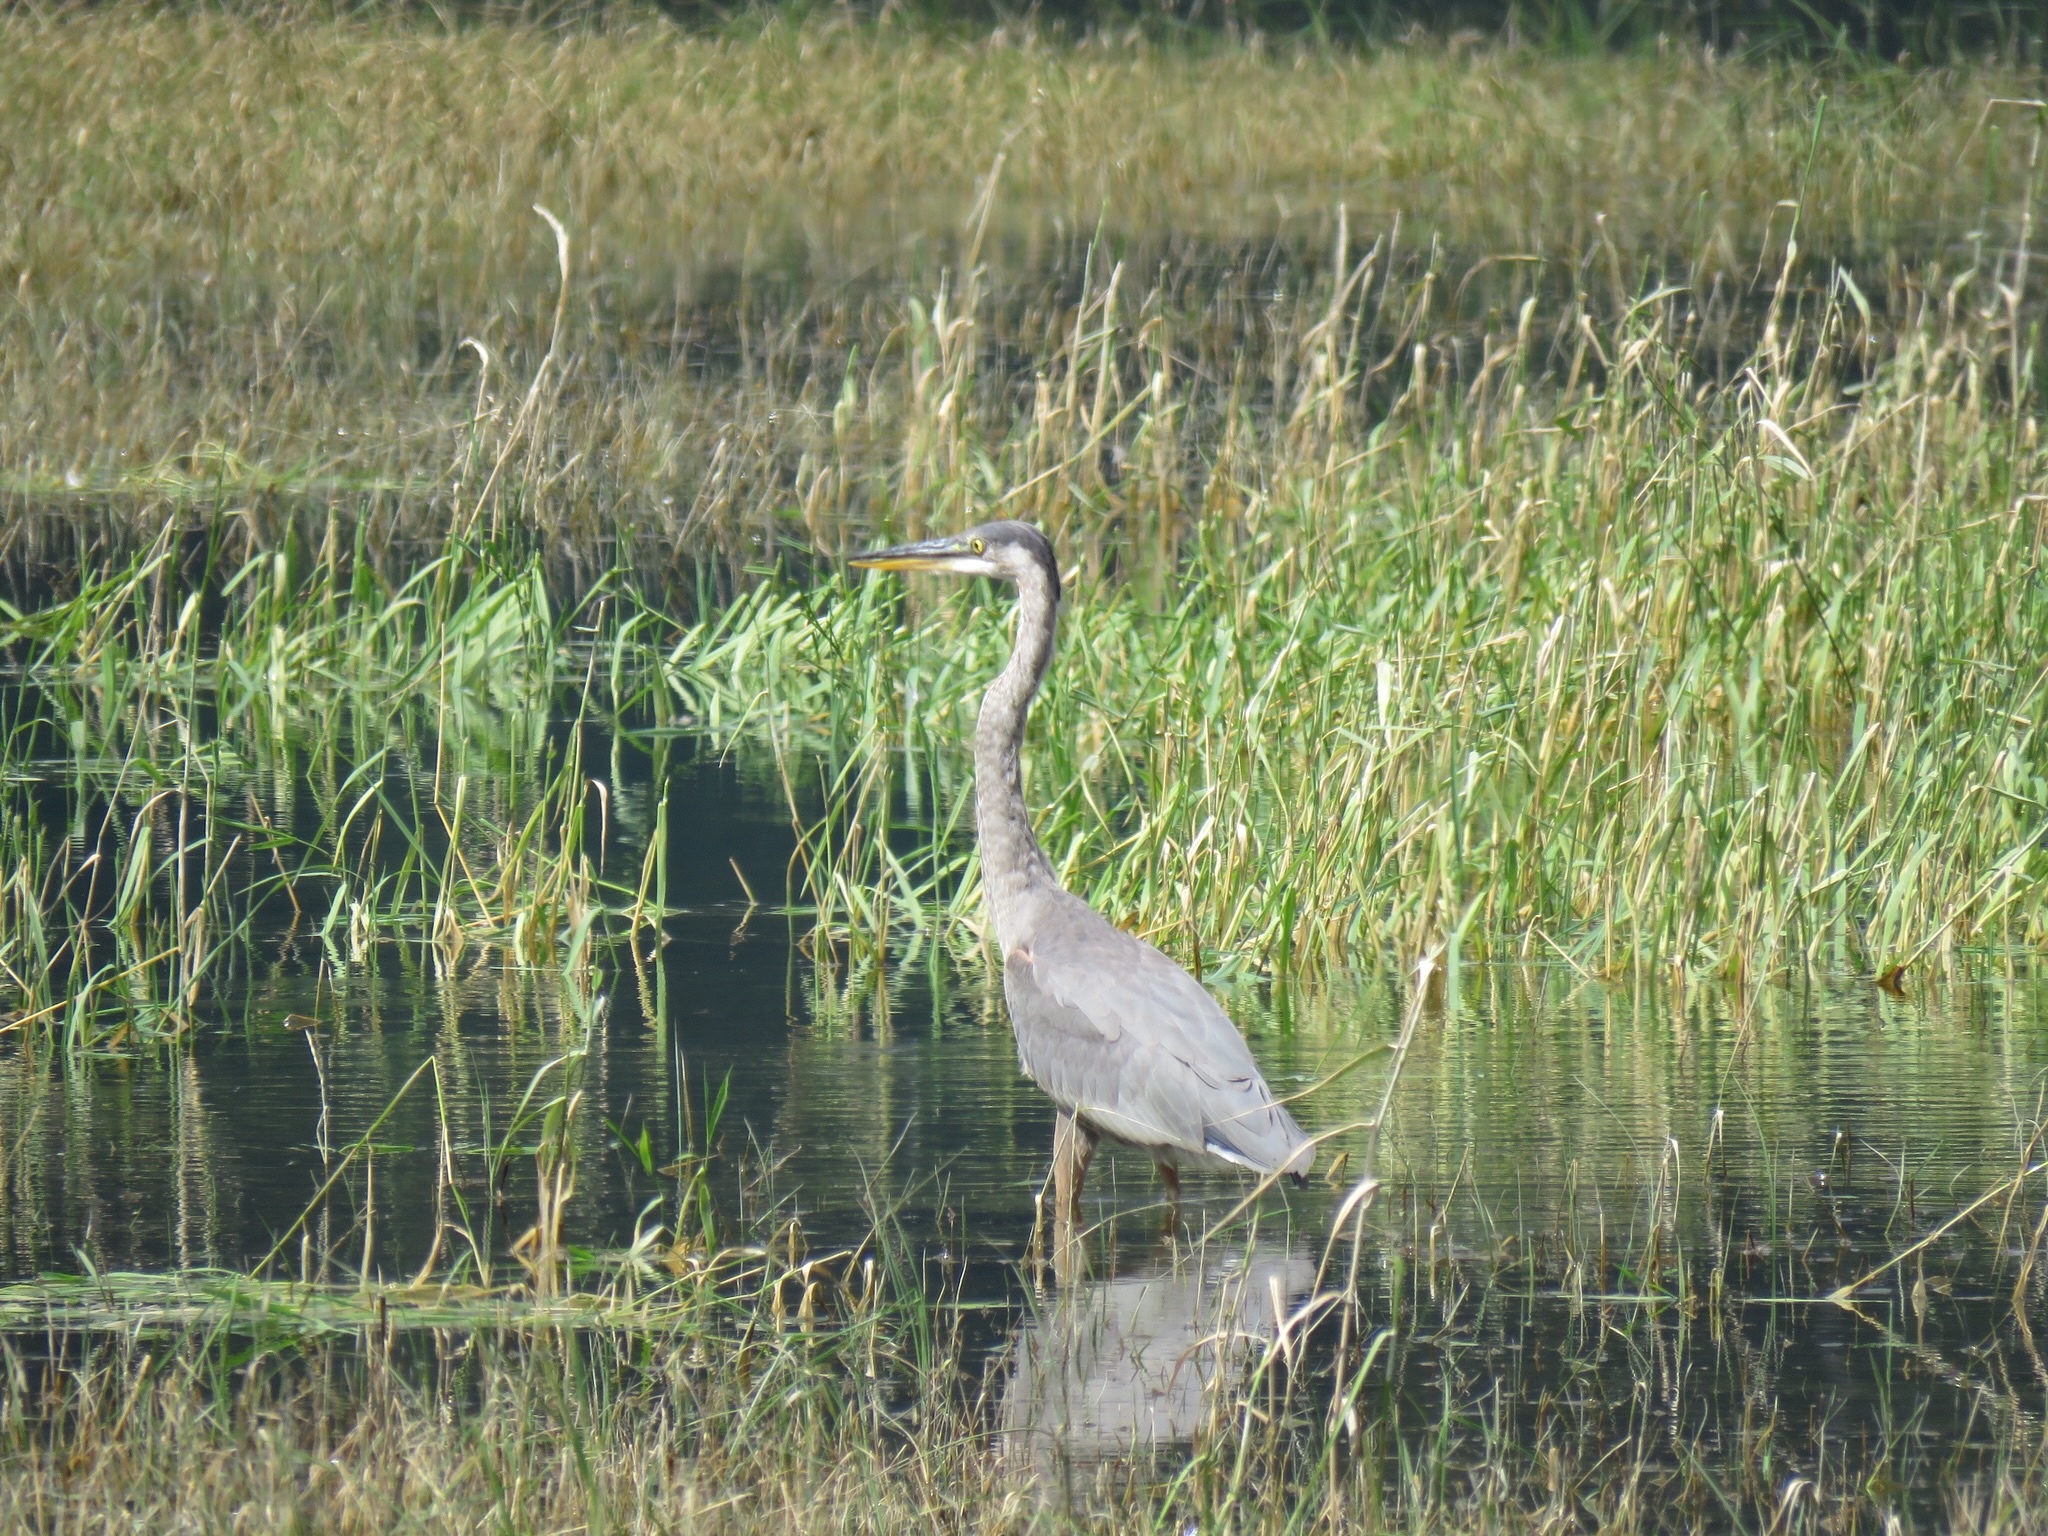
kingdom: Animalia
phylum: Chordata
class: Aves
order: Pelecaniformes
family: Ardeidae
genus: Ardea
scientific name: Ardea herodias
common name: Great blue heron
